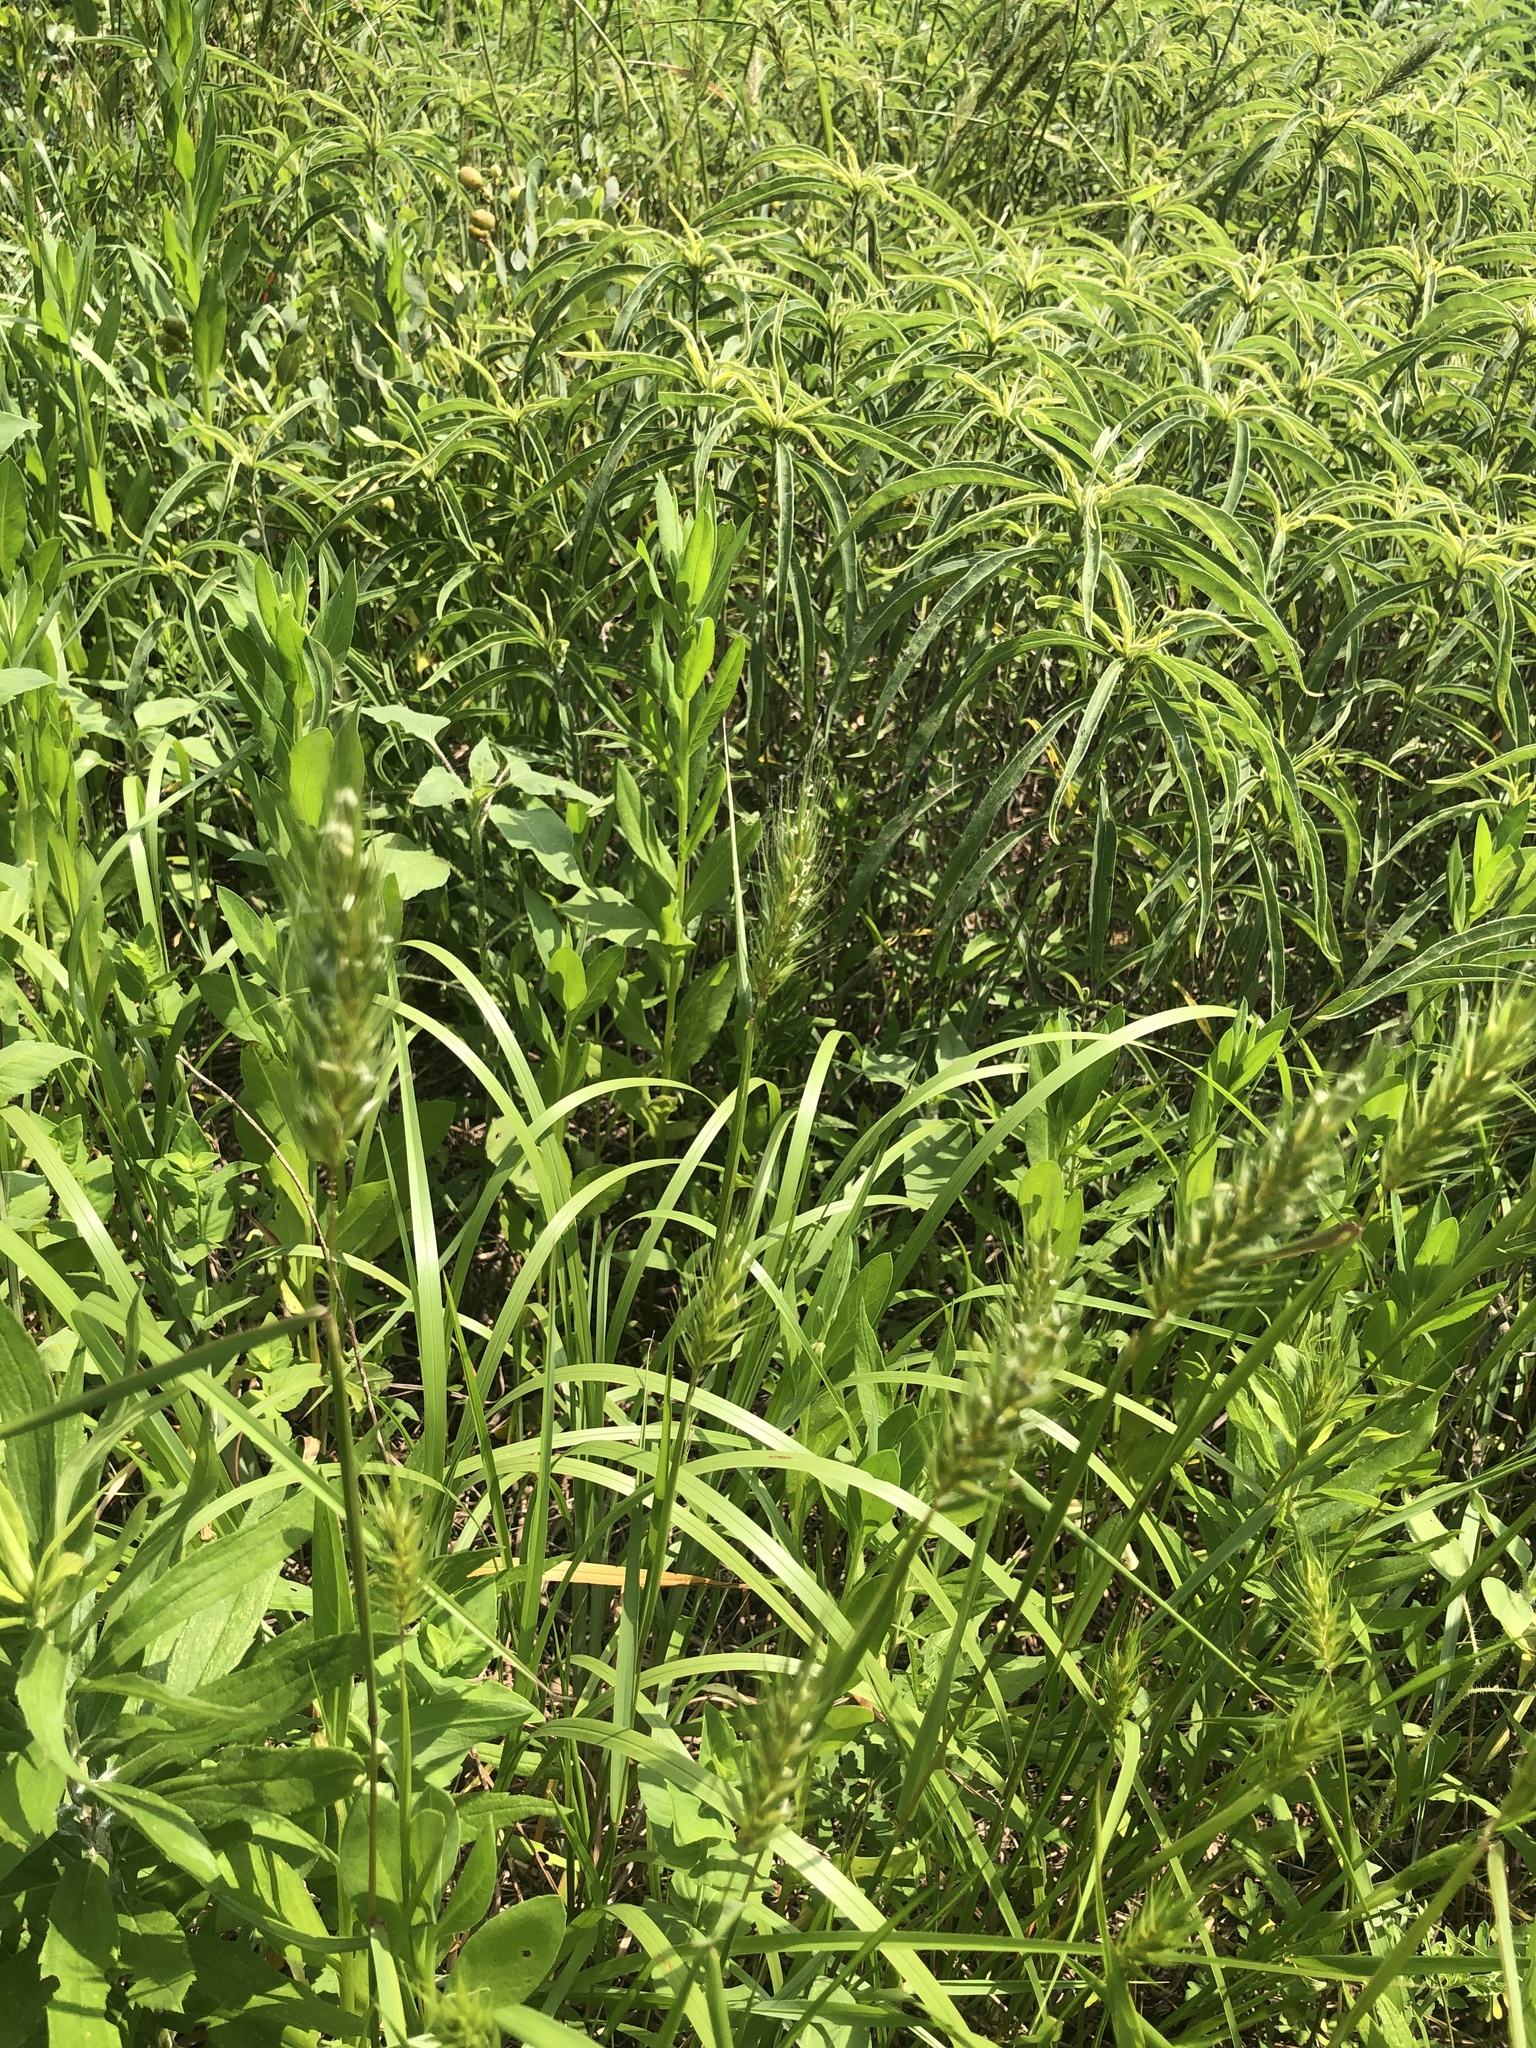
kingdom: Plantae
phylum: Tracheophyta
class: Liliopsida
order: Poales
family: Poaceae
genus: Elymus
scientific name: Elymus virginicus
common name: Common eastern wildrye
